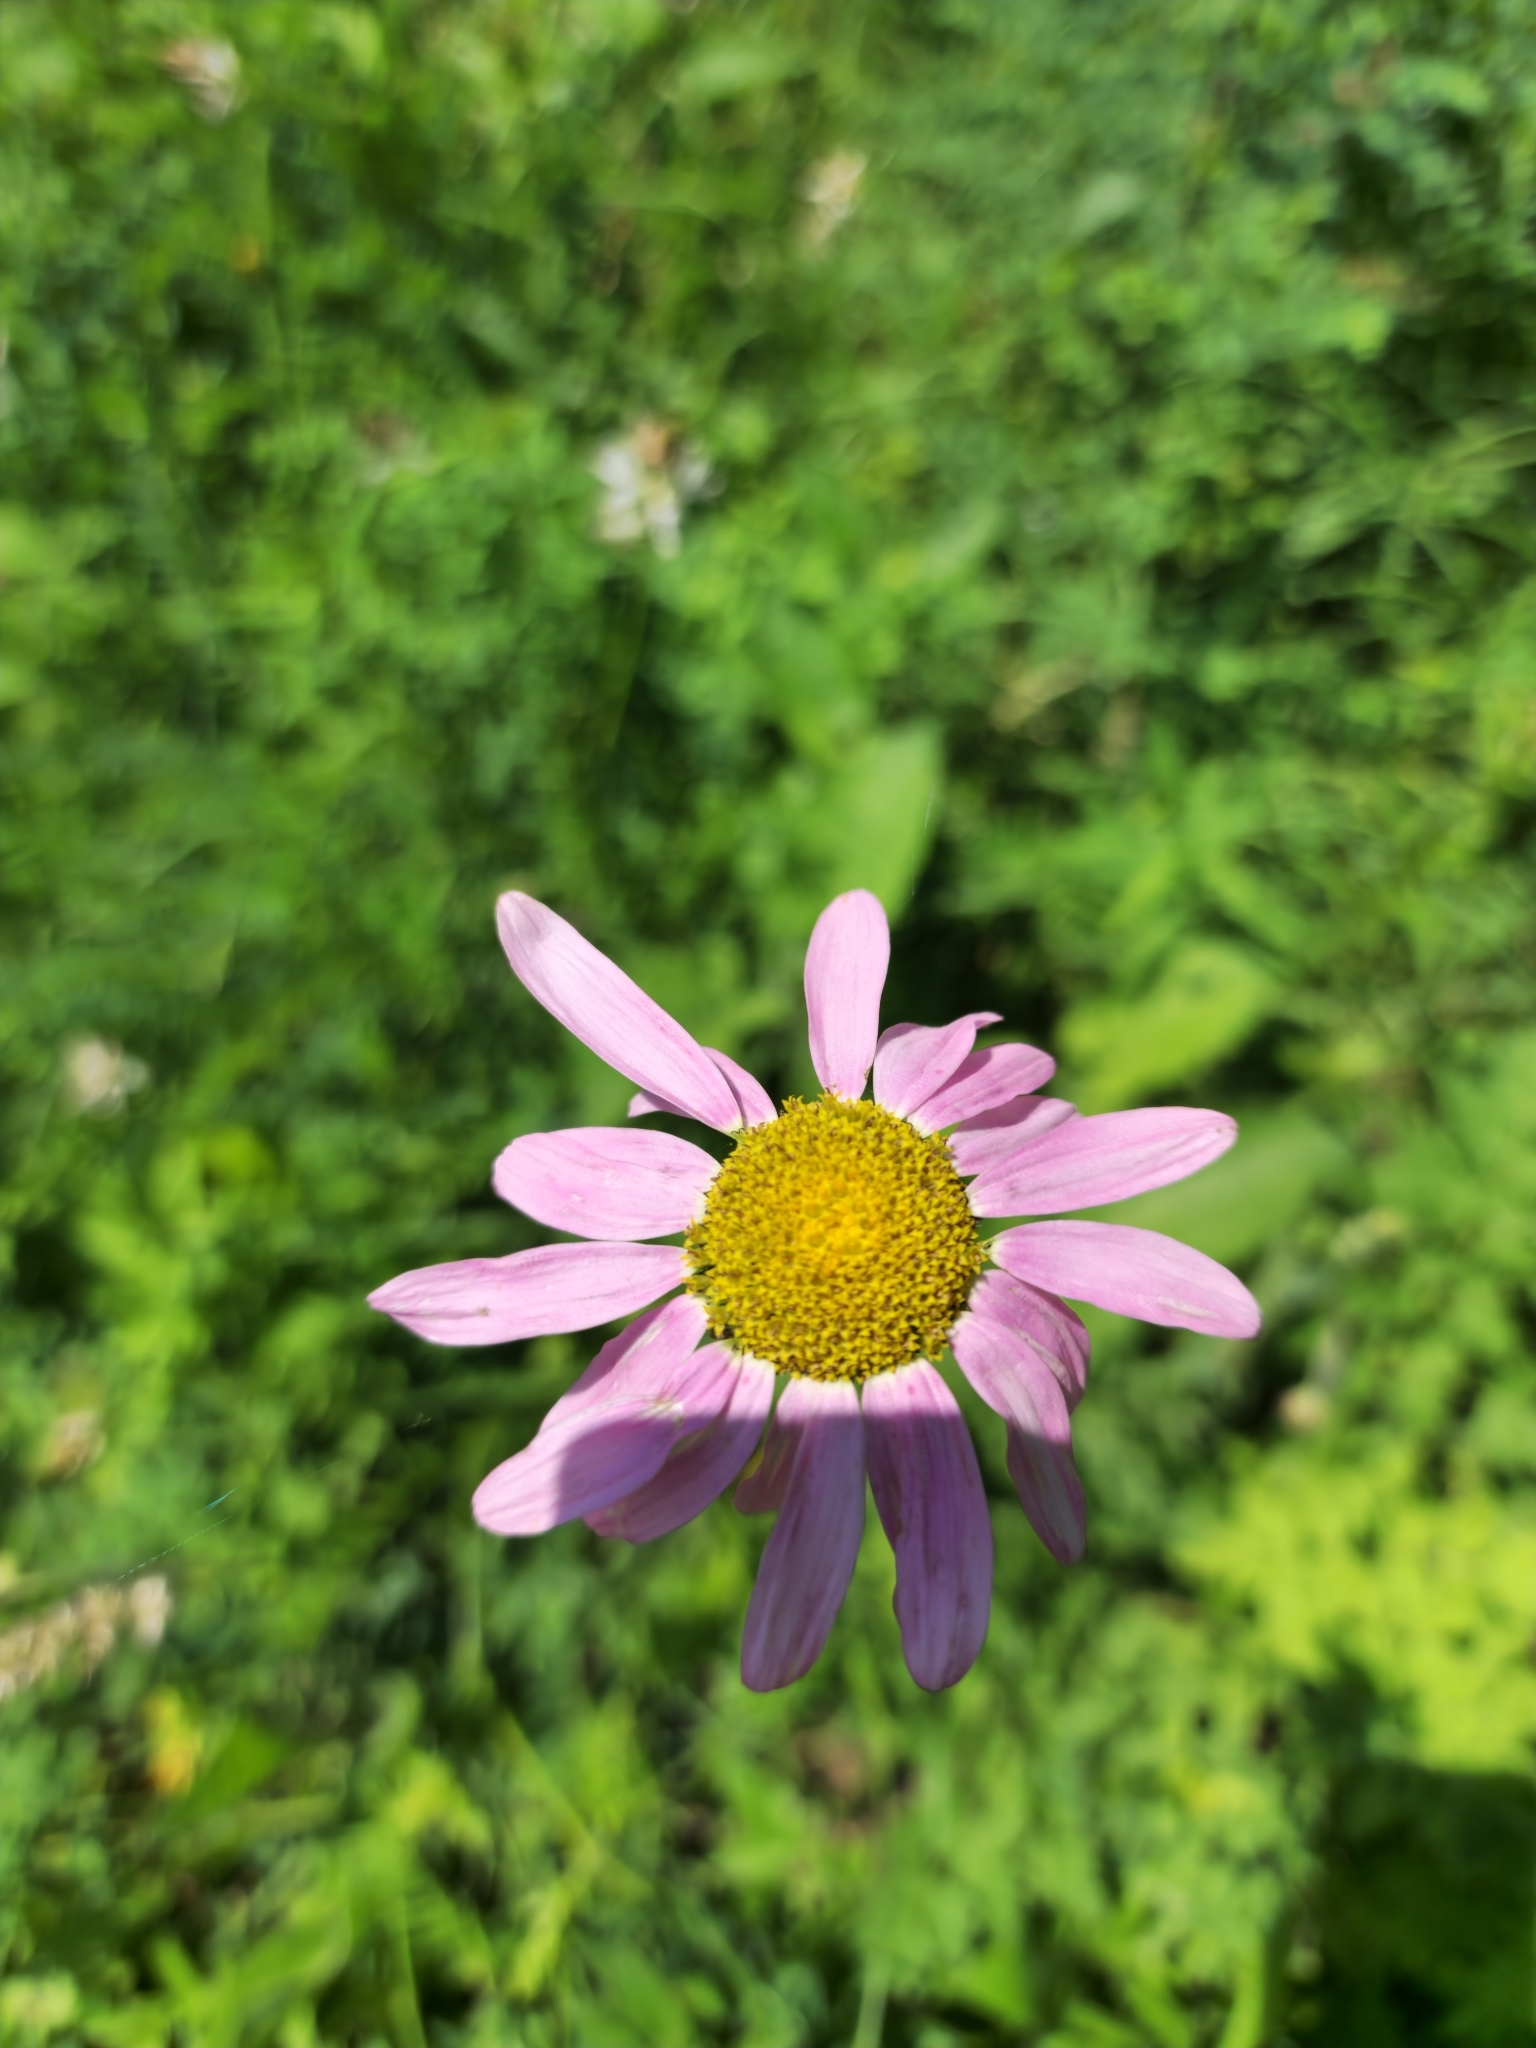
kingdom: Plantae
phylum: Tracheophyta
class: Magnoliopsida
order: Asterales
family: Asteraceae
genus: Tanacetum
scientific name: Tanacetum coccineum
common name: Pyrethum daisy
